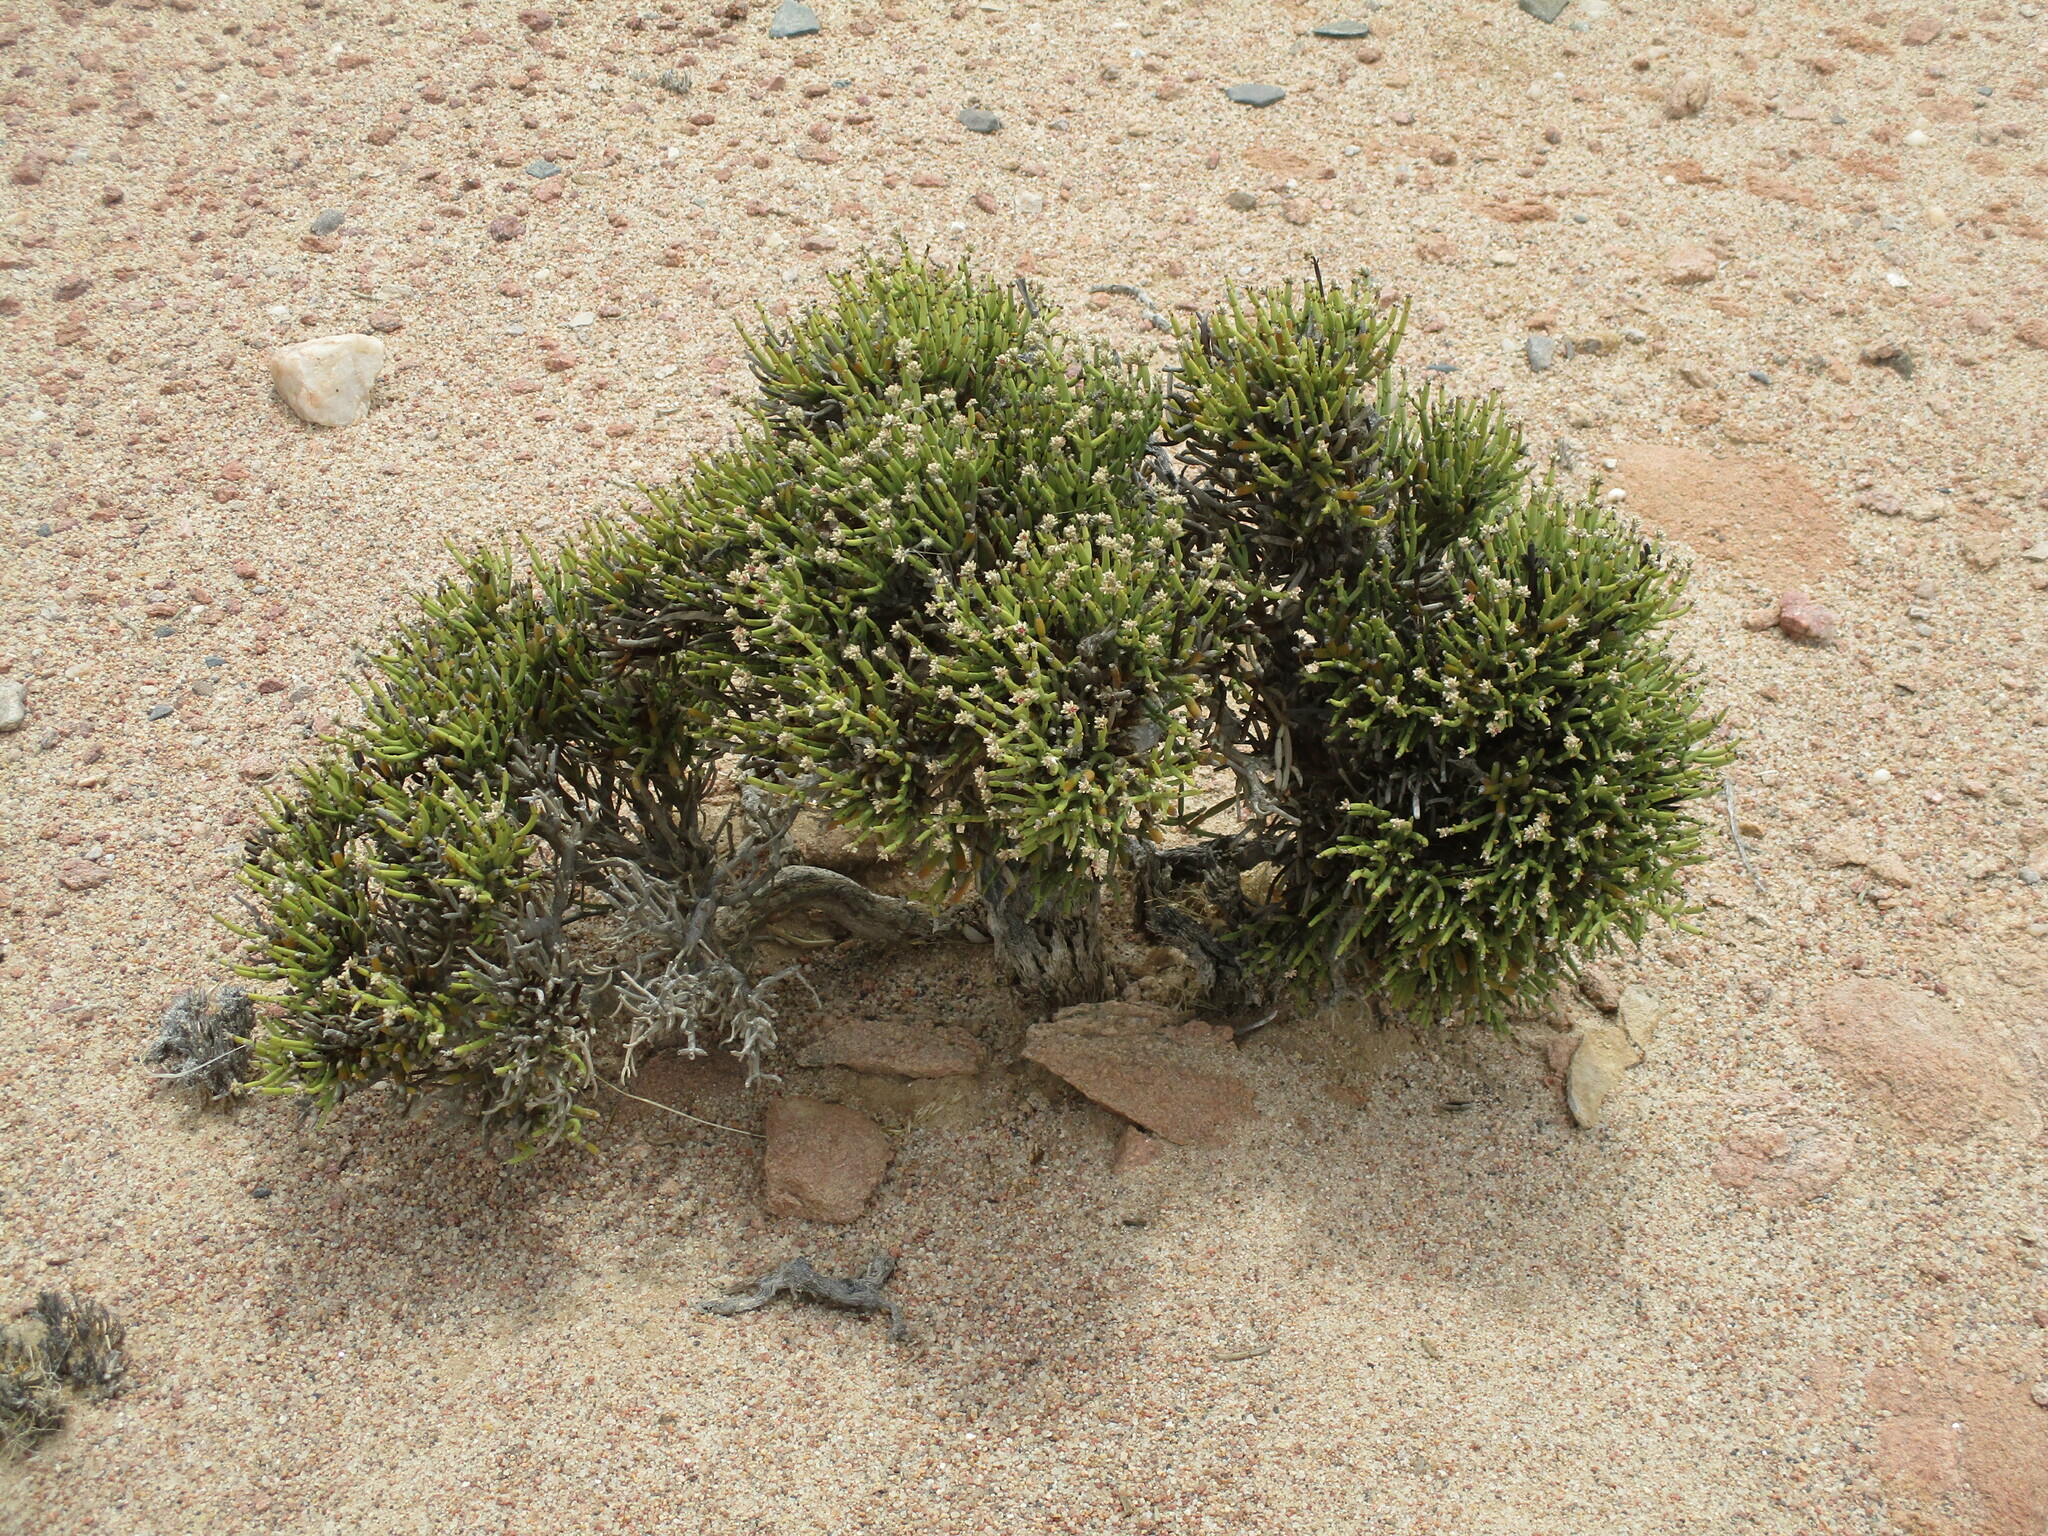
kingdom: Plantae
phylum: Tracheophyta
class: Magnoliopsida
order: Caryophyllales
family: Amaranthaceae
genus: Arthraerva
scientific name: Arthraerva leubnitziae
